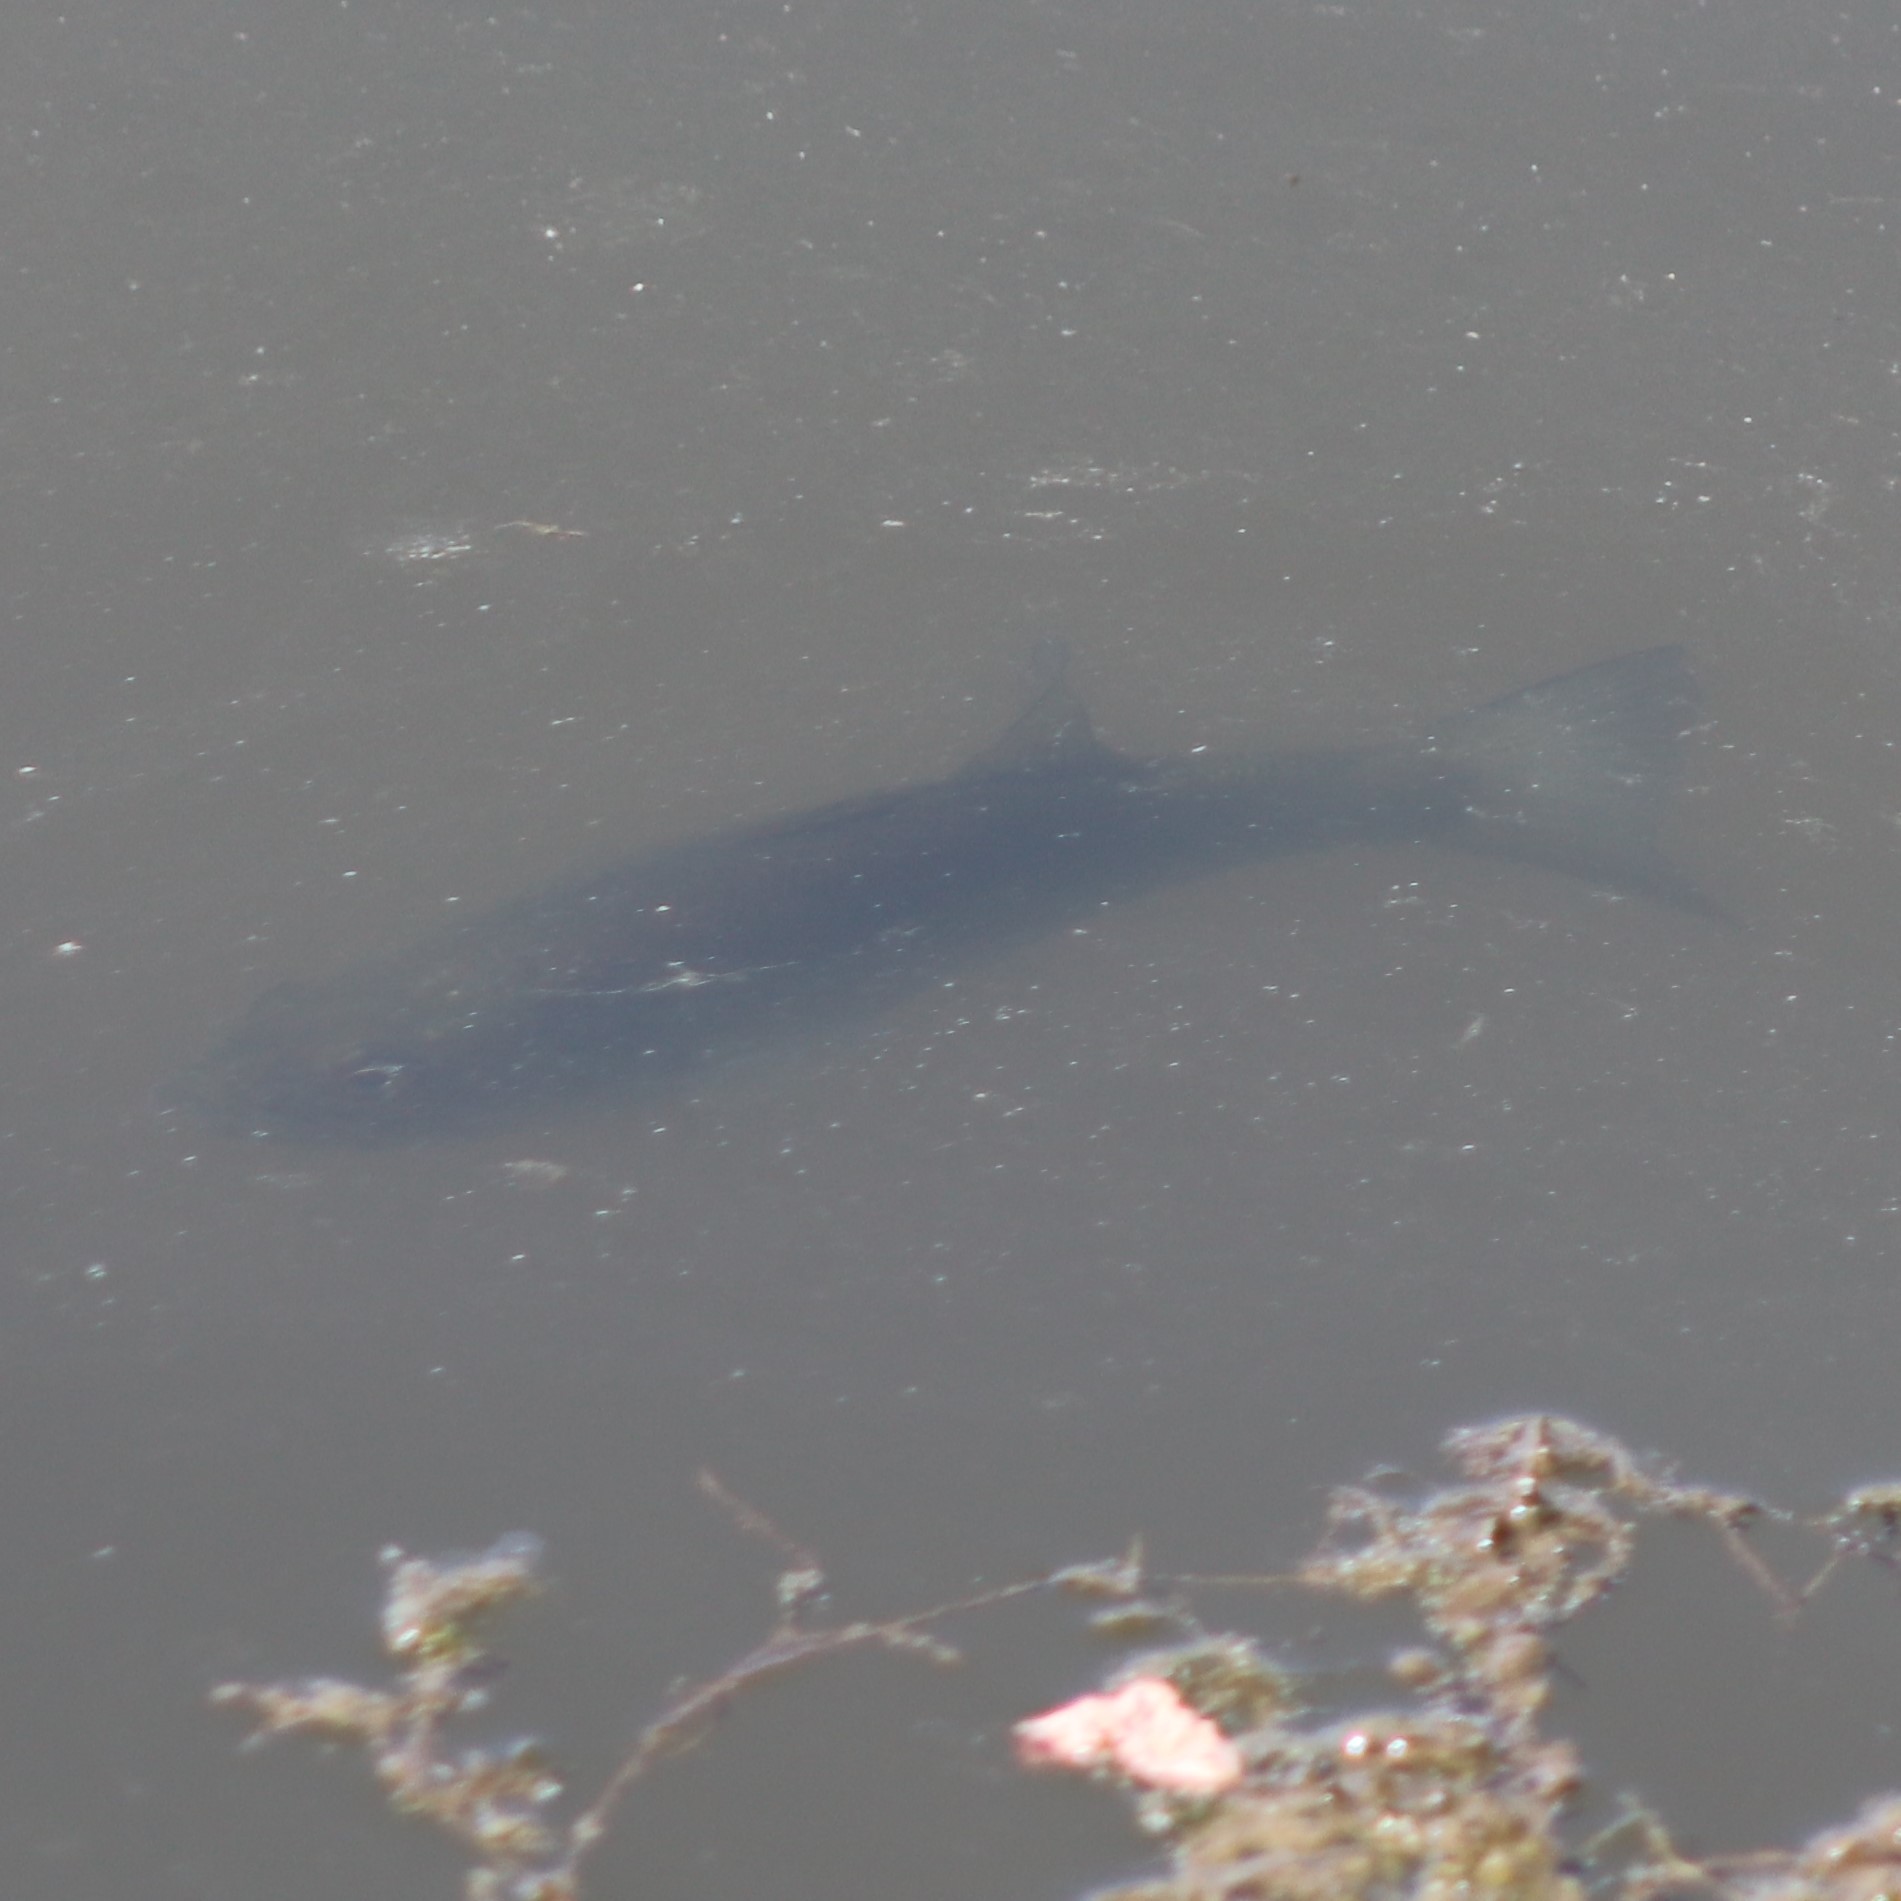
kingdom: Animalia
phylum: Chordata
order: Perciformes
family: Centrarchidae
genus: Micropterus
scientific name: Micropterus
